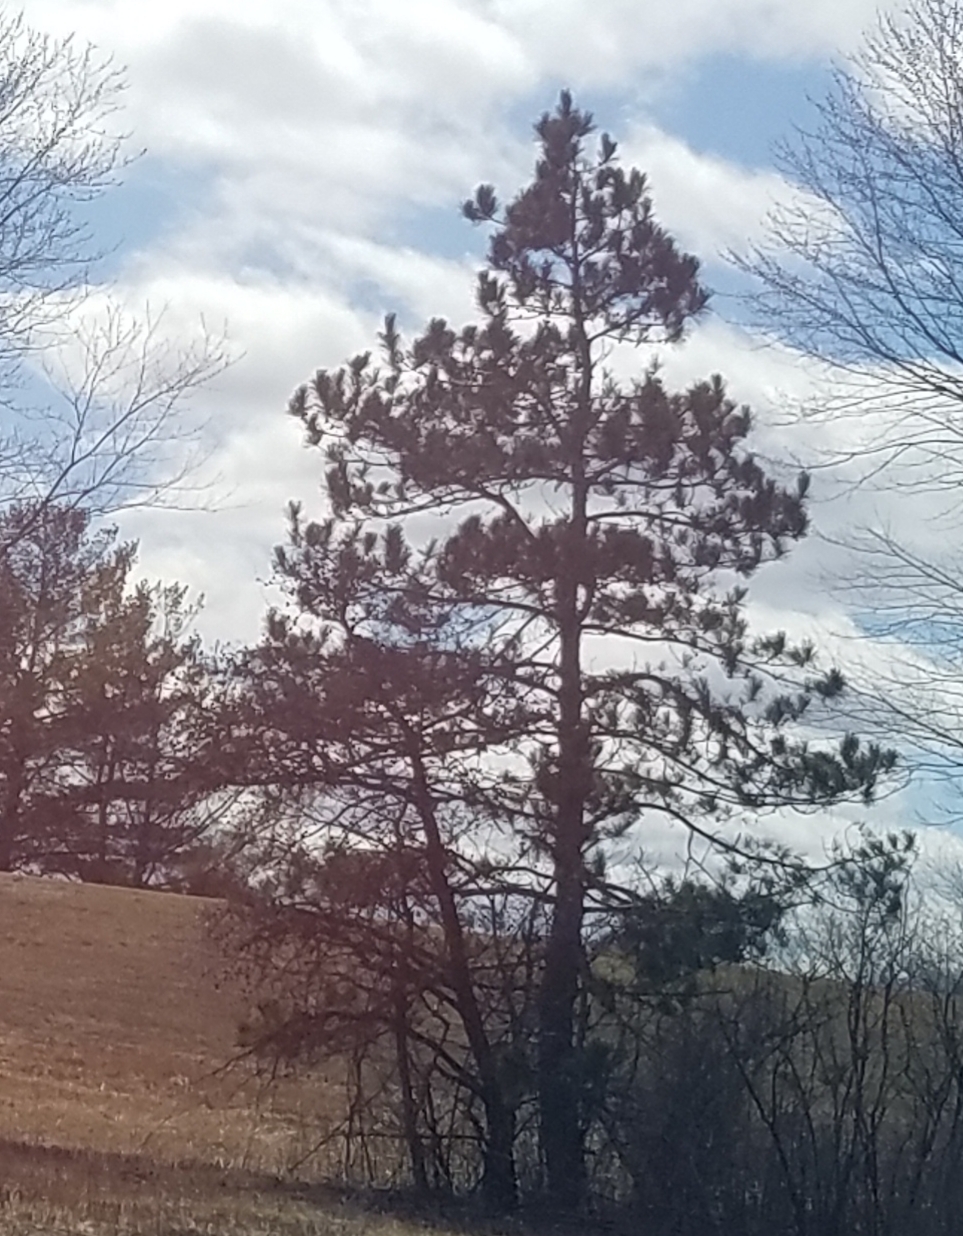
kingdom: Plantae
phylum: Tracheophyta
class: Pinopsida
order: Pinales
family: Pinaceae
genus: Pinus
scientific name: Pinus resinosa
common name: Norway pine
